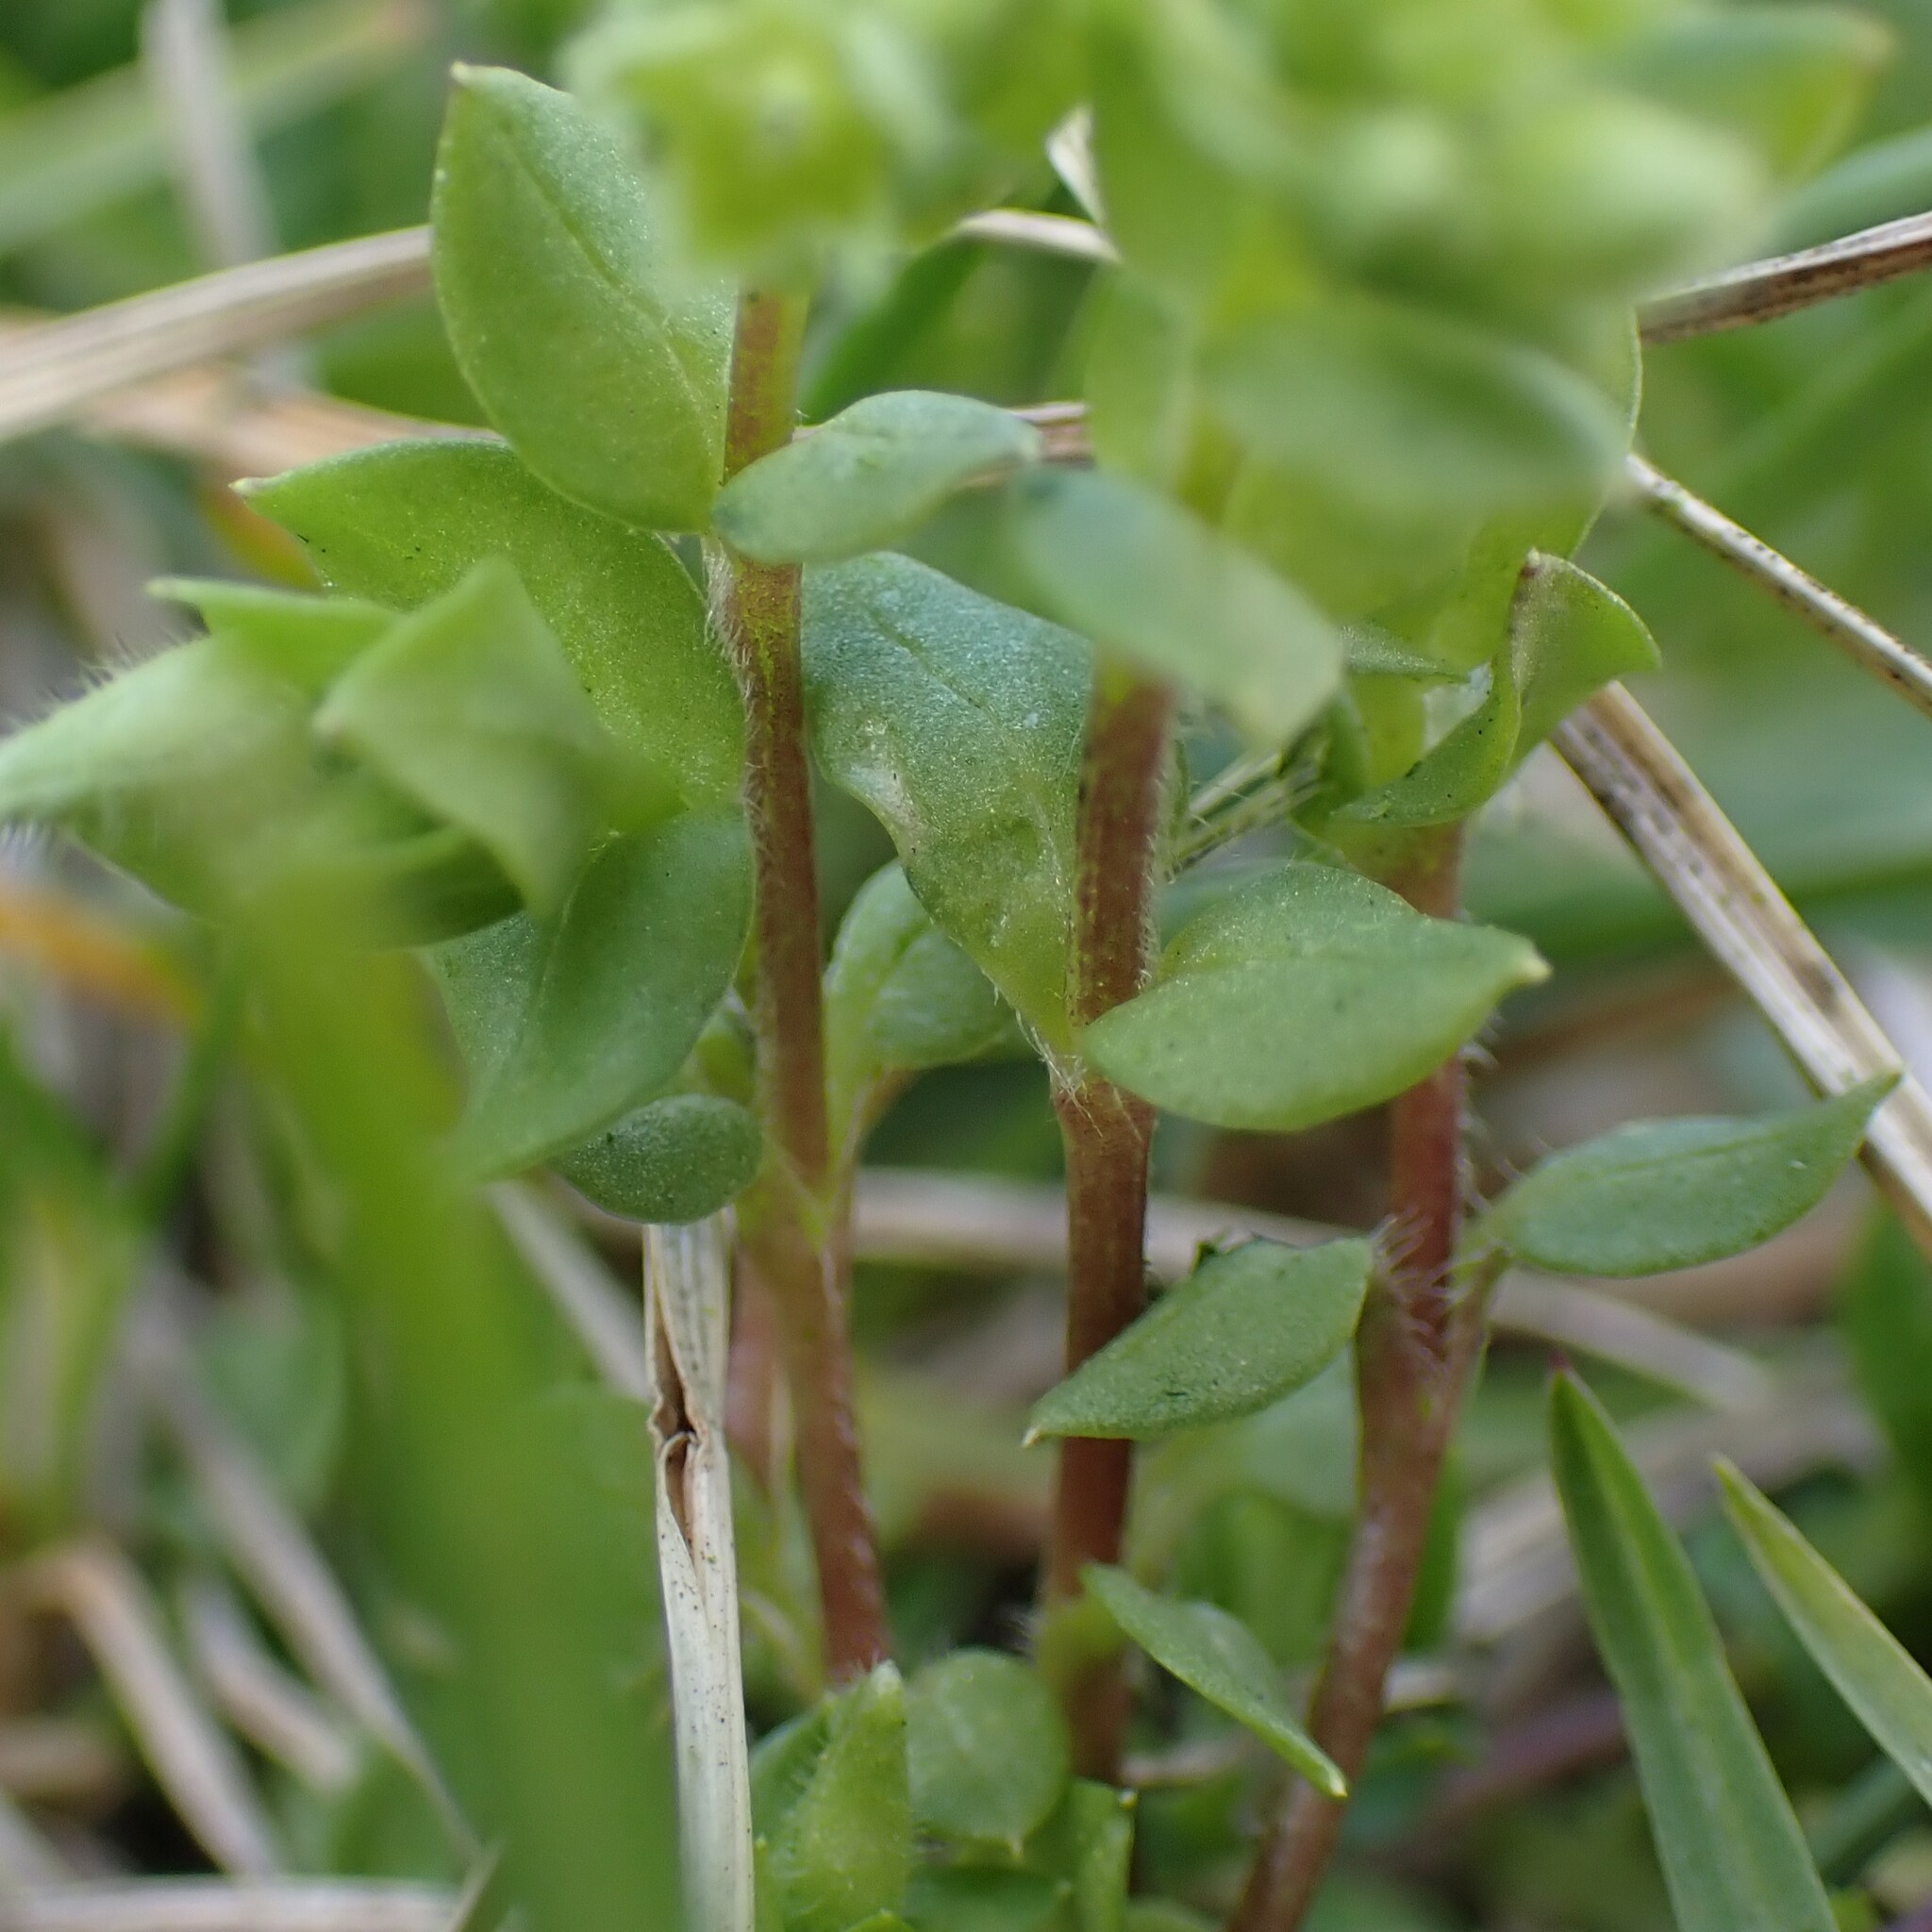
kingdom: Plantae
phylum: Tracheophyta
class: Magnoliopsida
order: Caryophyllales
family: Caryophyllaceae
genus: Stellaria
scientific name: Stellaria apetala
